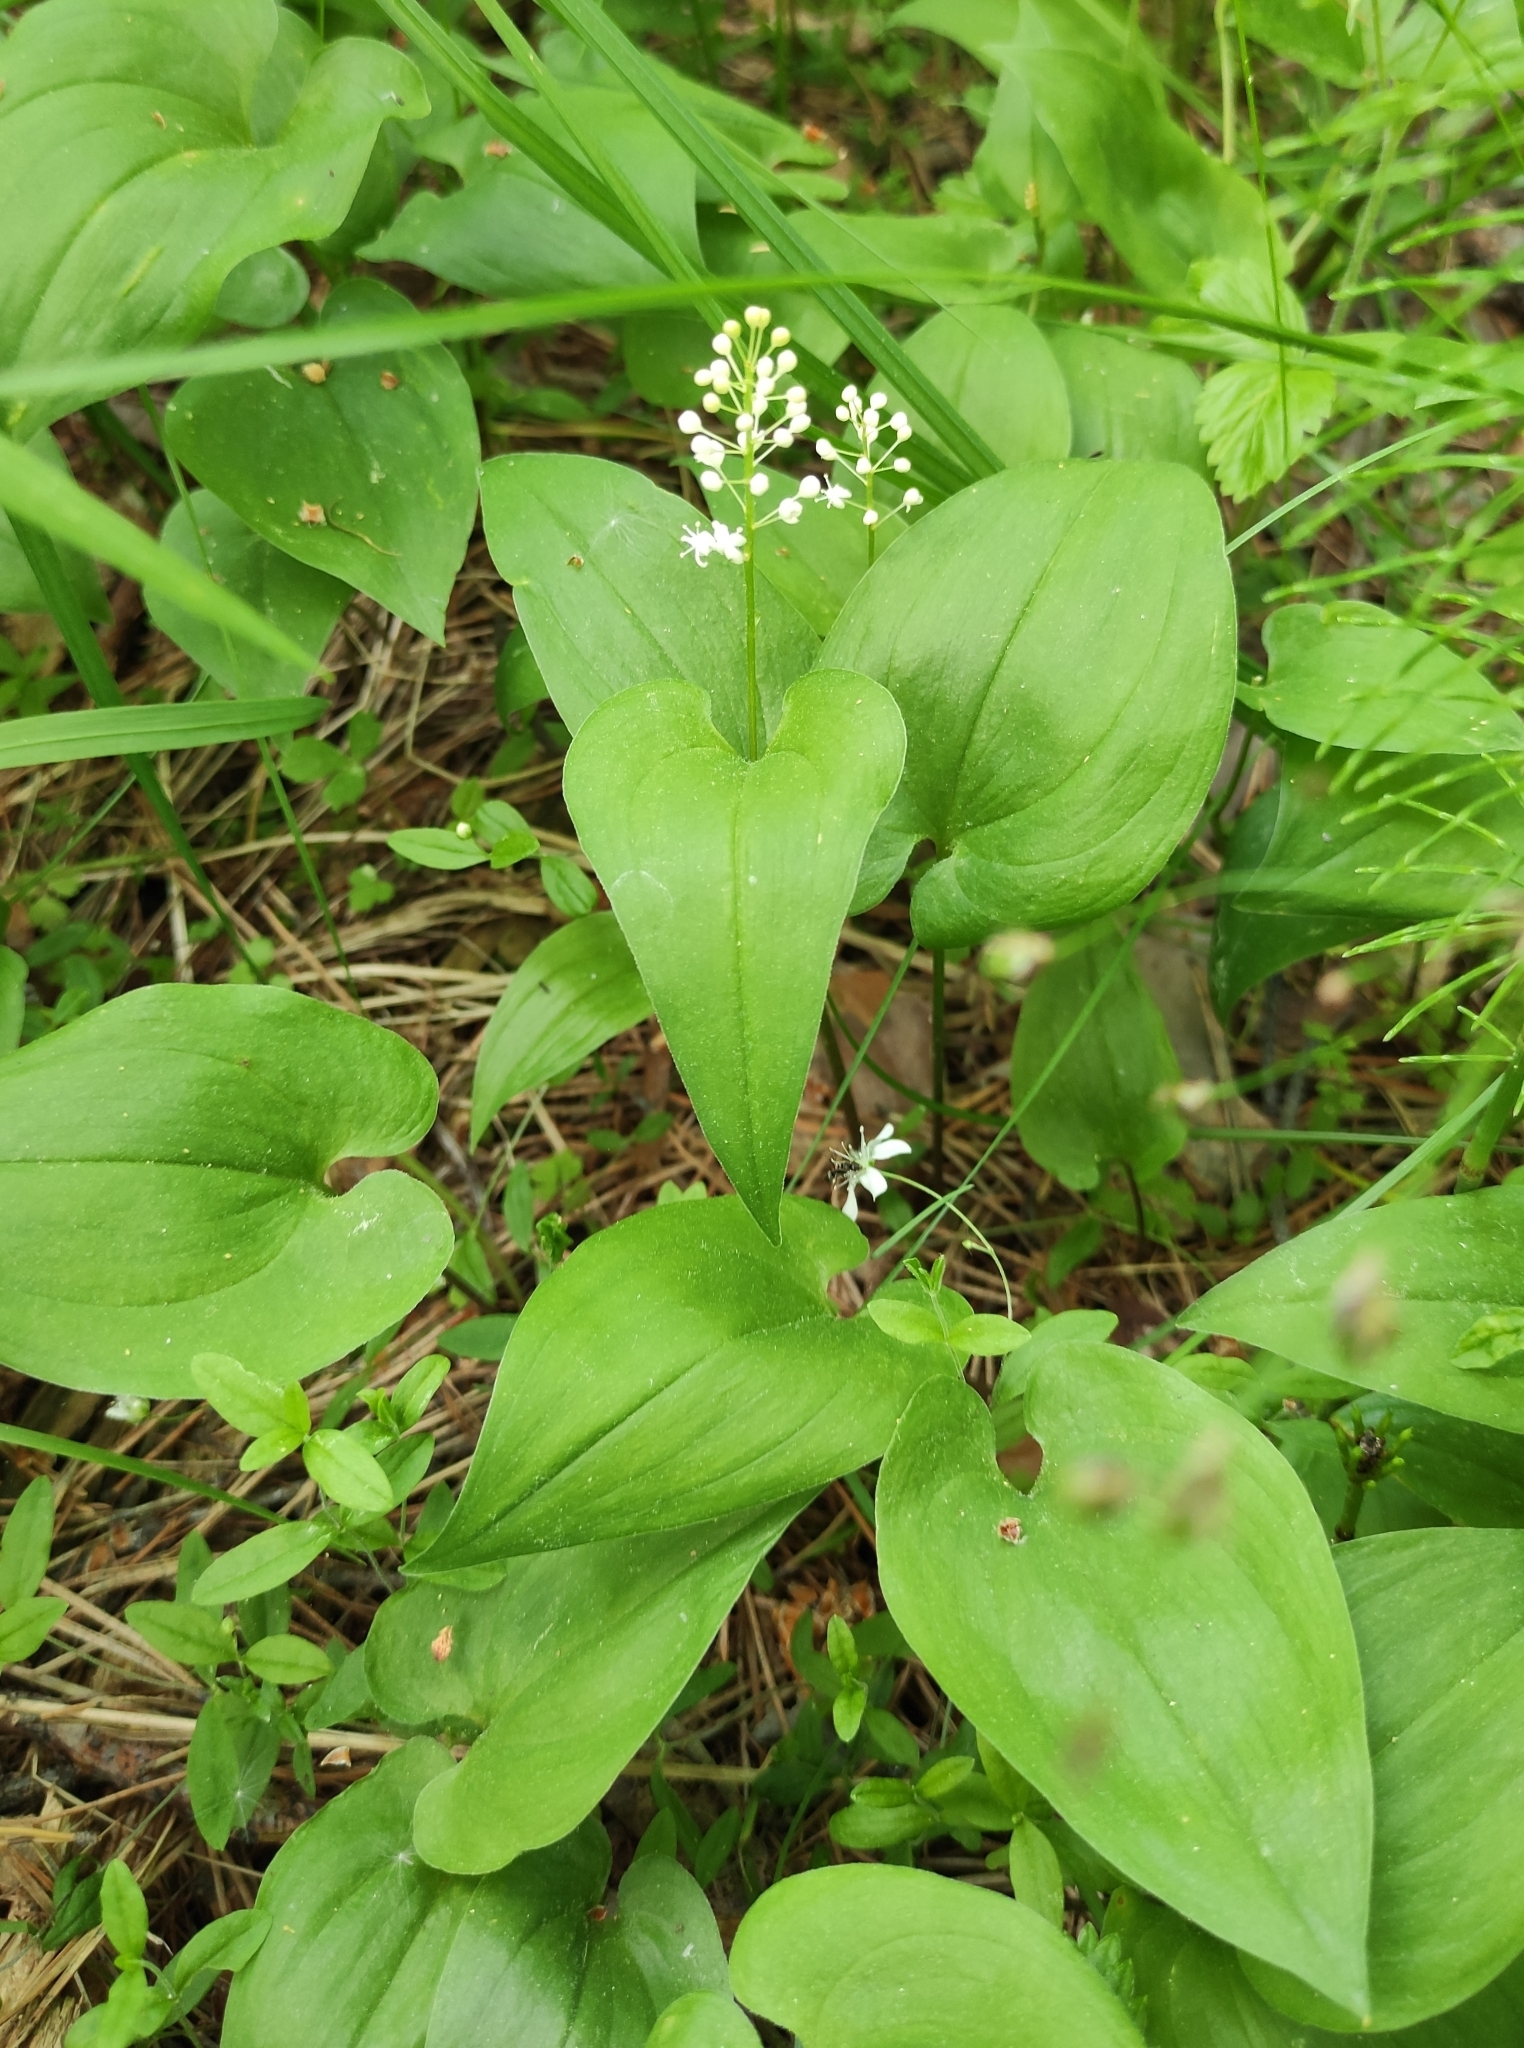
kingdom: Plantae
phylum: Tracheophyta
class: Liliopsida
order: Asparagales
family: Asparagaceae
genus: Maianthemum
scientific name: Maianthemum bifolium
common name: May lily
